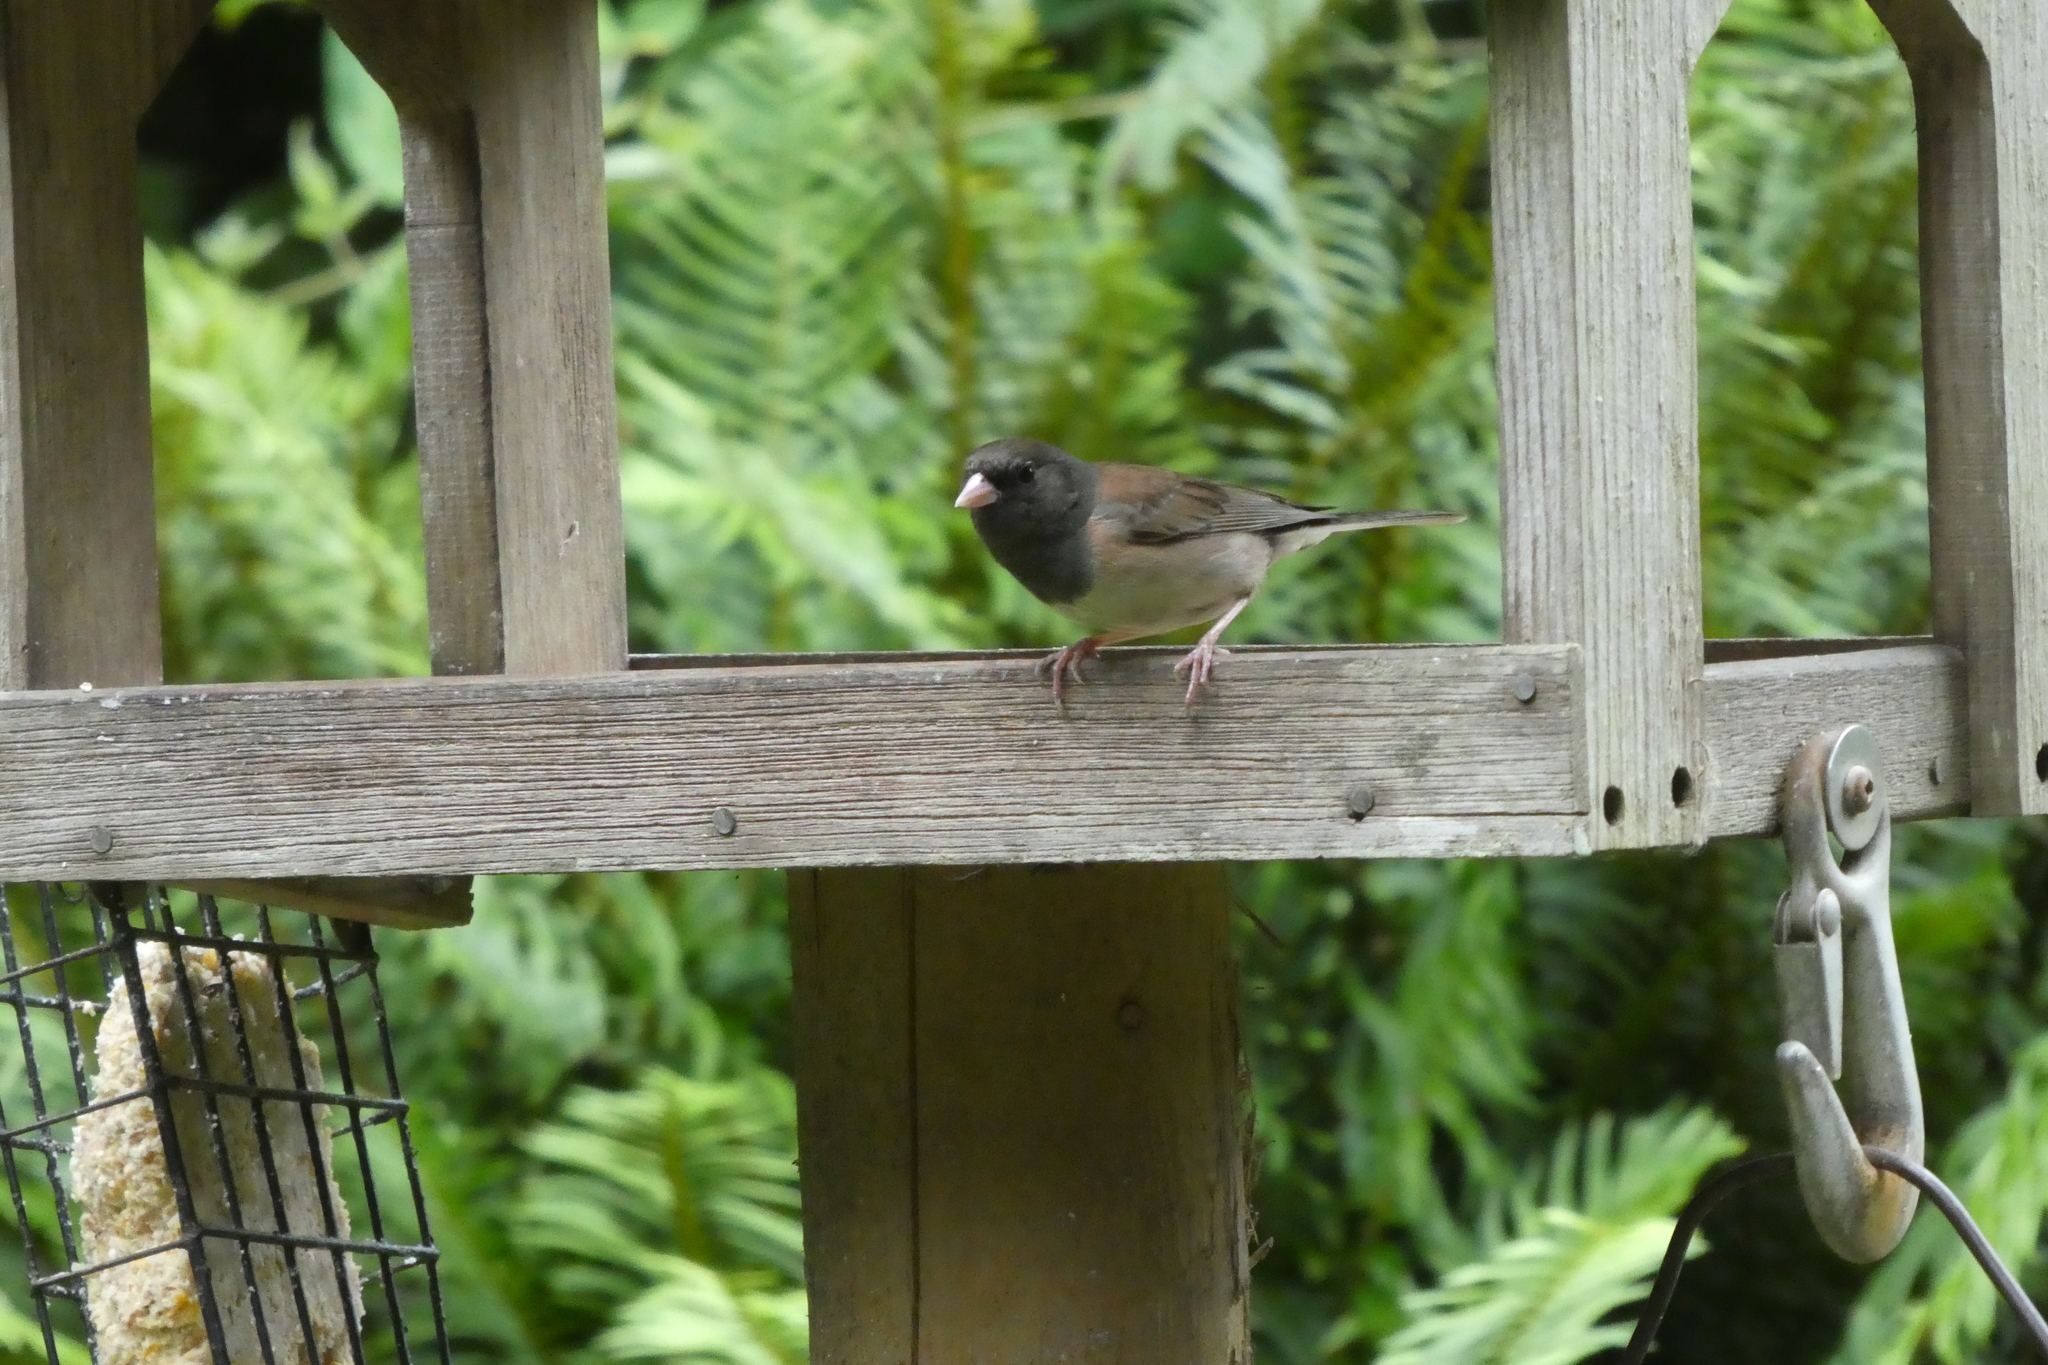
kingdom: Animalia
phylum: Chordata
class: Aves
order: Passeriformes
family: Passerellidae
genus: Junco
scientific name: Junco hyemalis
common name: Dark-eyed junco
